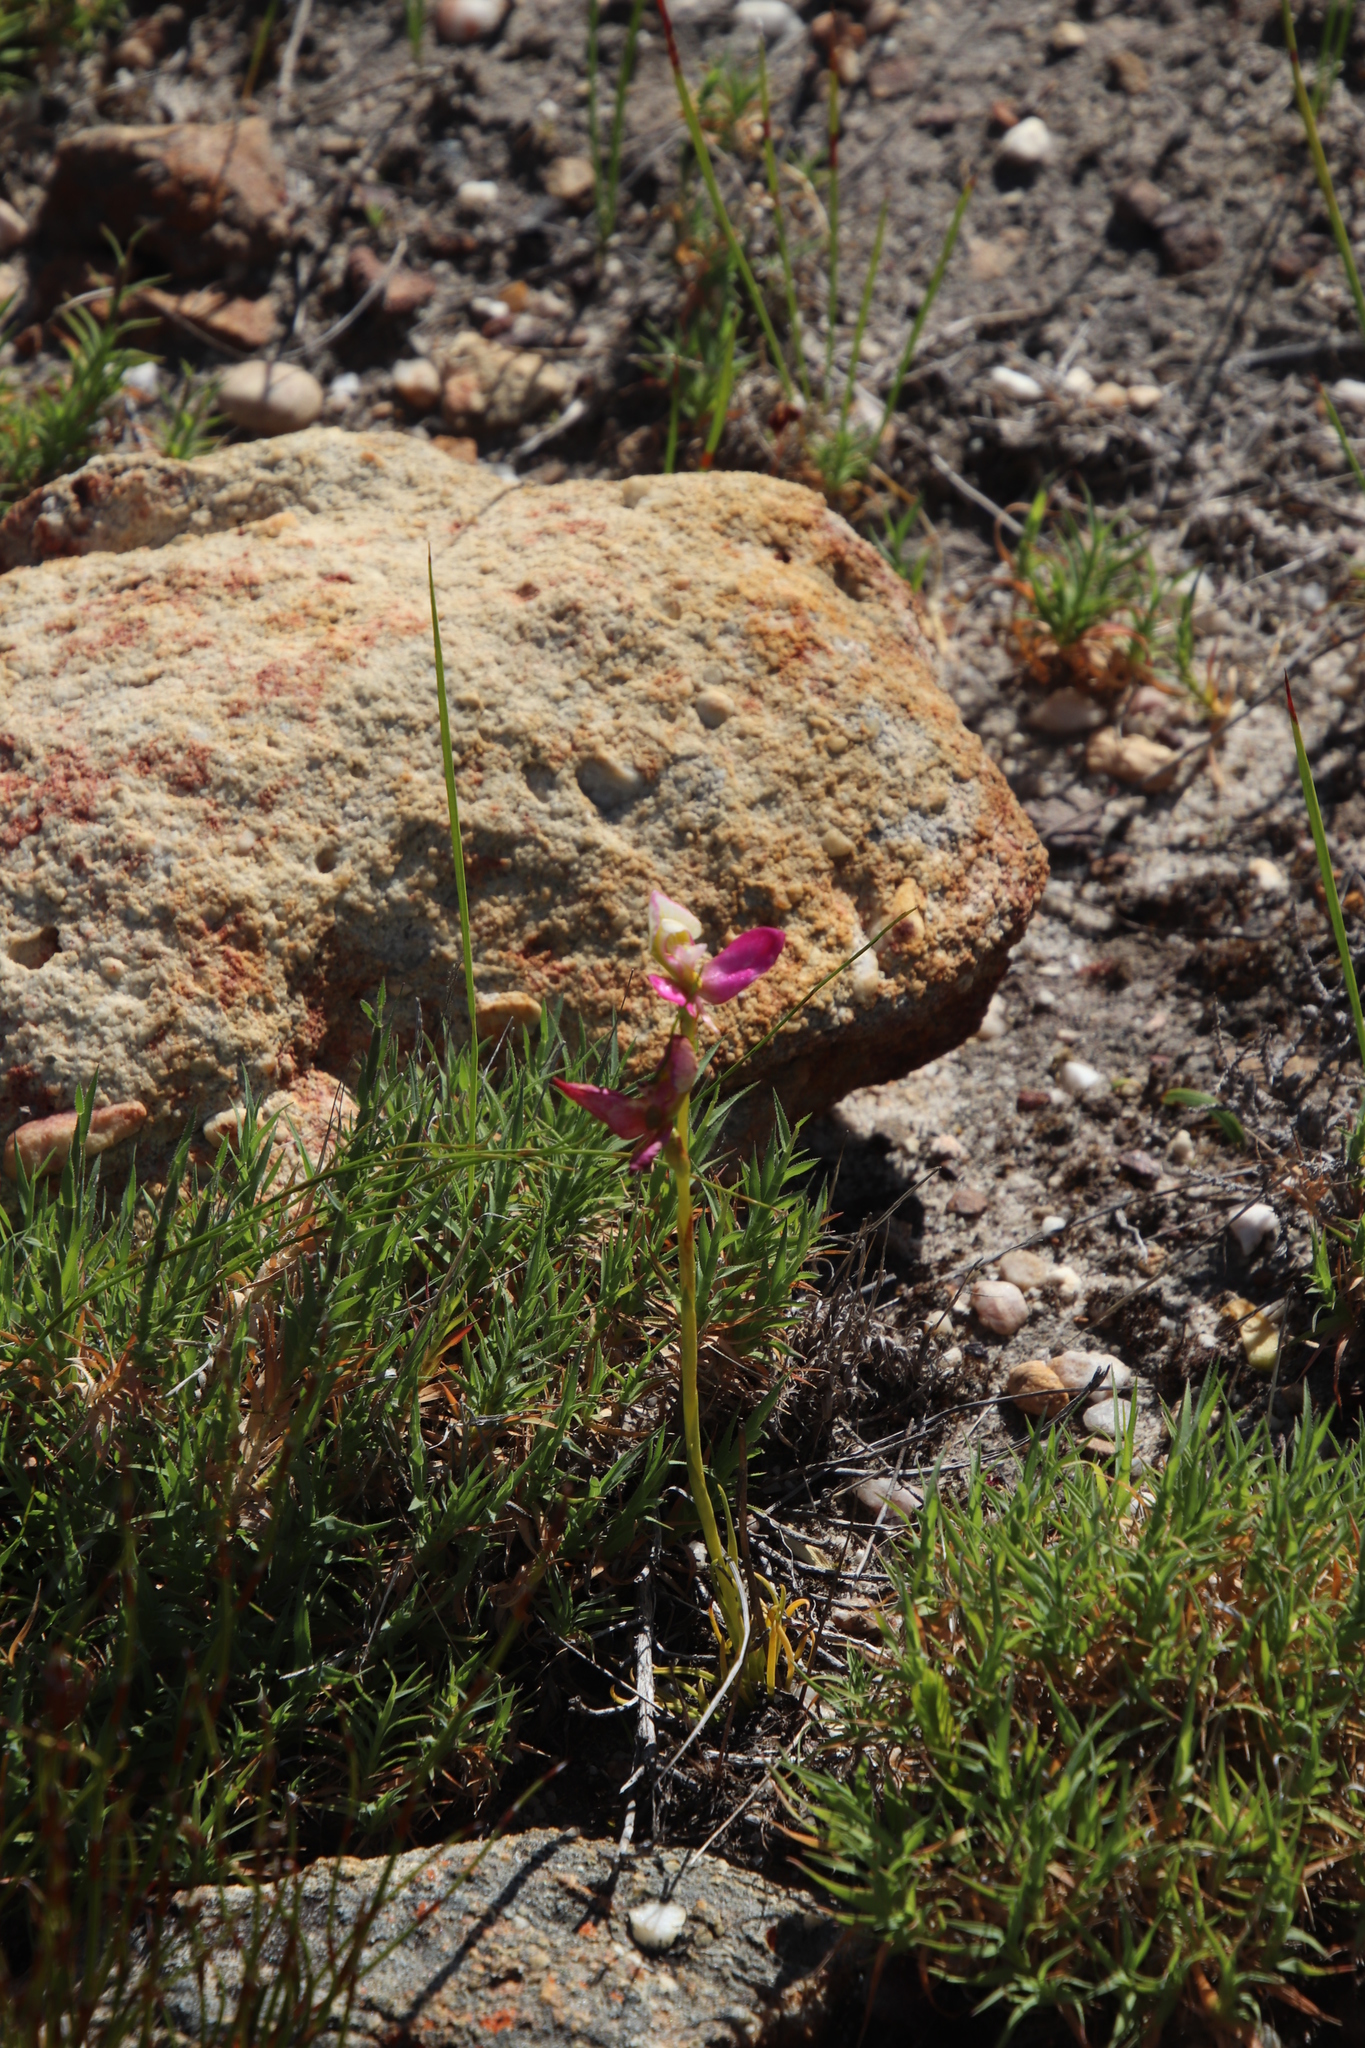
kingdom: Plantae
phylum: Tracheophyta
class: Liliopsida
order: Asparagales
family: Orchidaceae
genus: Disa
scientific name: Disa filicornis
